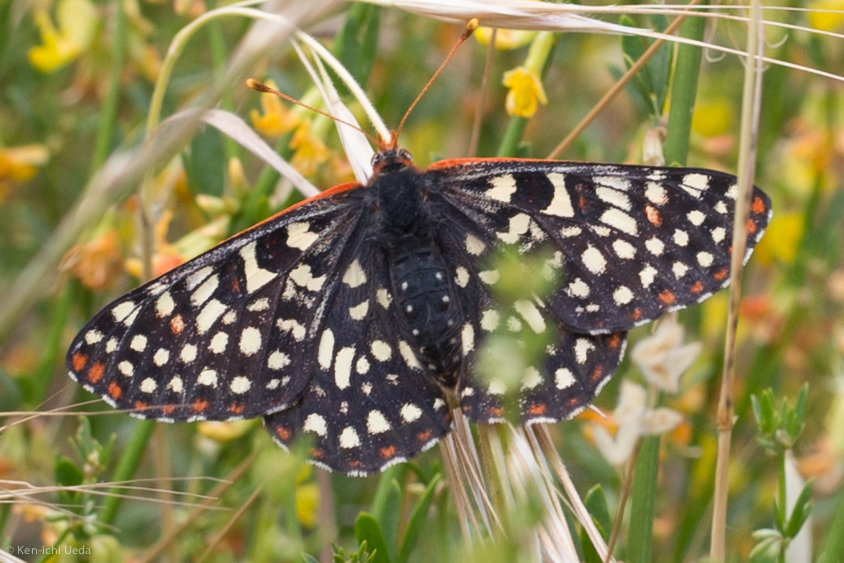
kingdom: Animalia
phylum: Arthropoda
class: Insecta
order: Lepidoptera
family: Nymphalidae
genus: Occidryas
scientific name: Occidryas chalcedona
